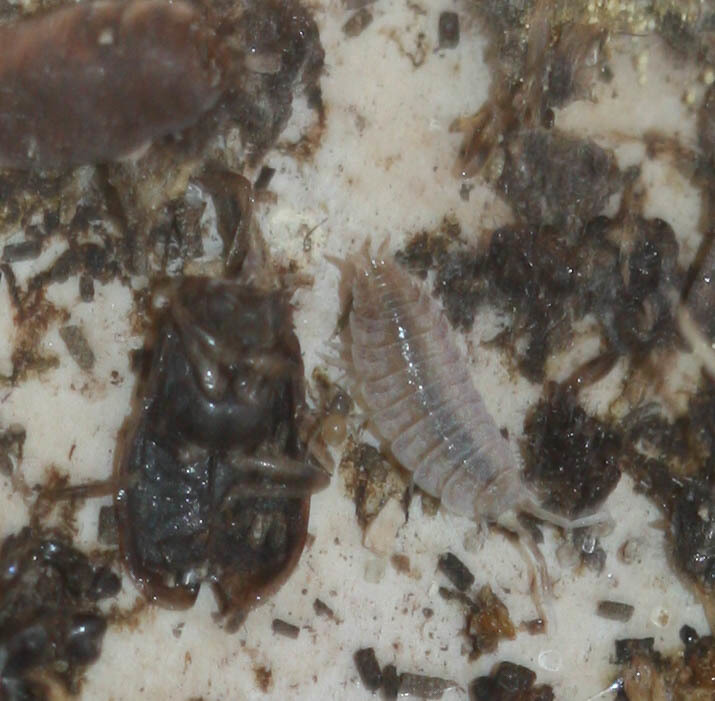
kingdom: Animalia
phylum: Arthropoda
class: Malacostraca
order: Isopoda
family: Porcellionidae
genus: Porcellionides
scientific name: Porcellionides sexfasciatus
